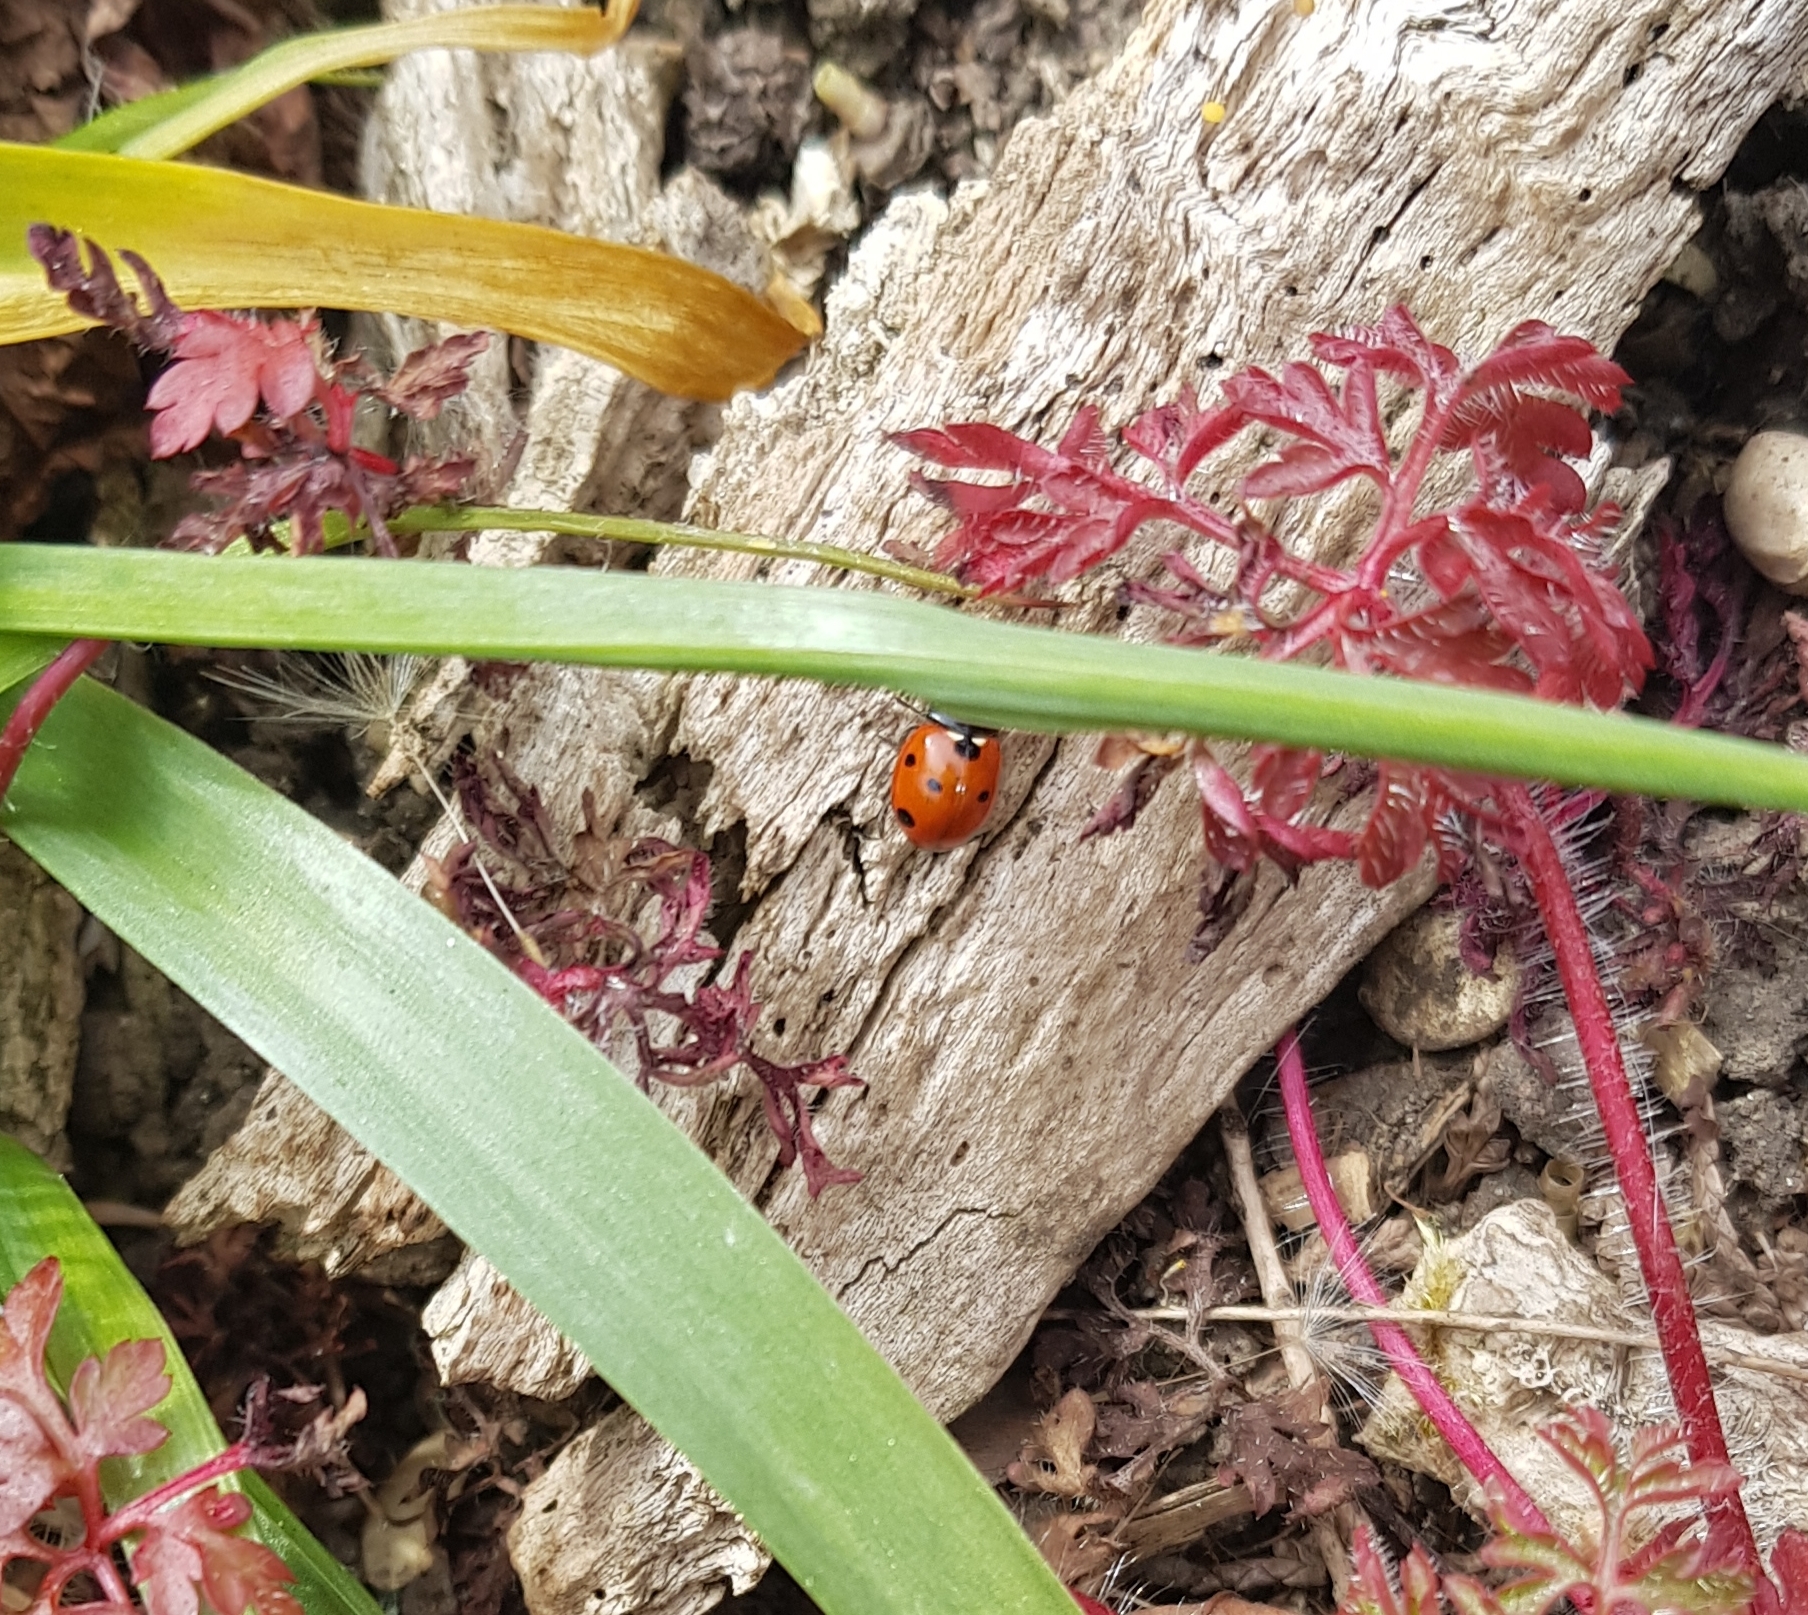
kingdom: Animalia
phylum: Arthropoda
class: Insecta
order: Coleoptera
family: Coccinellidae
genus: Coccinella
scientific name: Coccinella septempunctata
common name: Sevenspotted lady beetle
